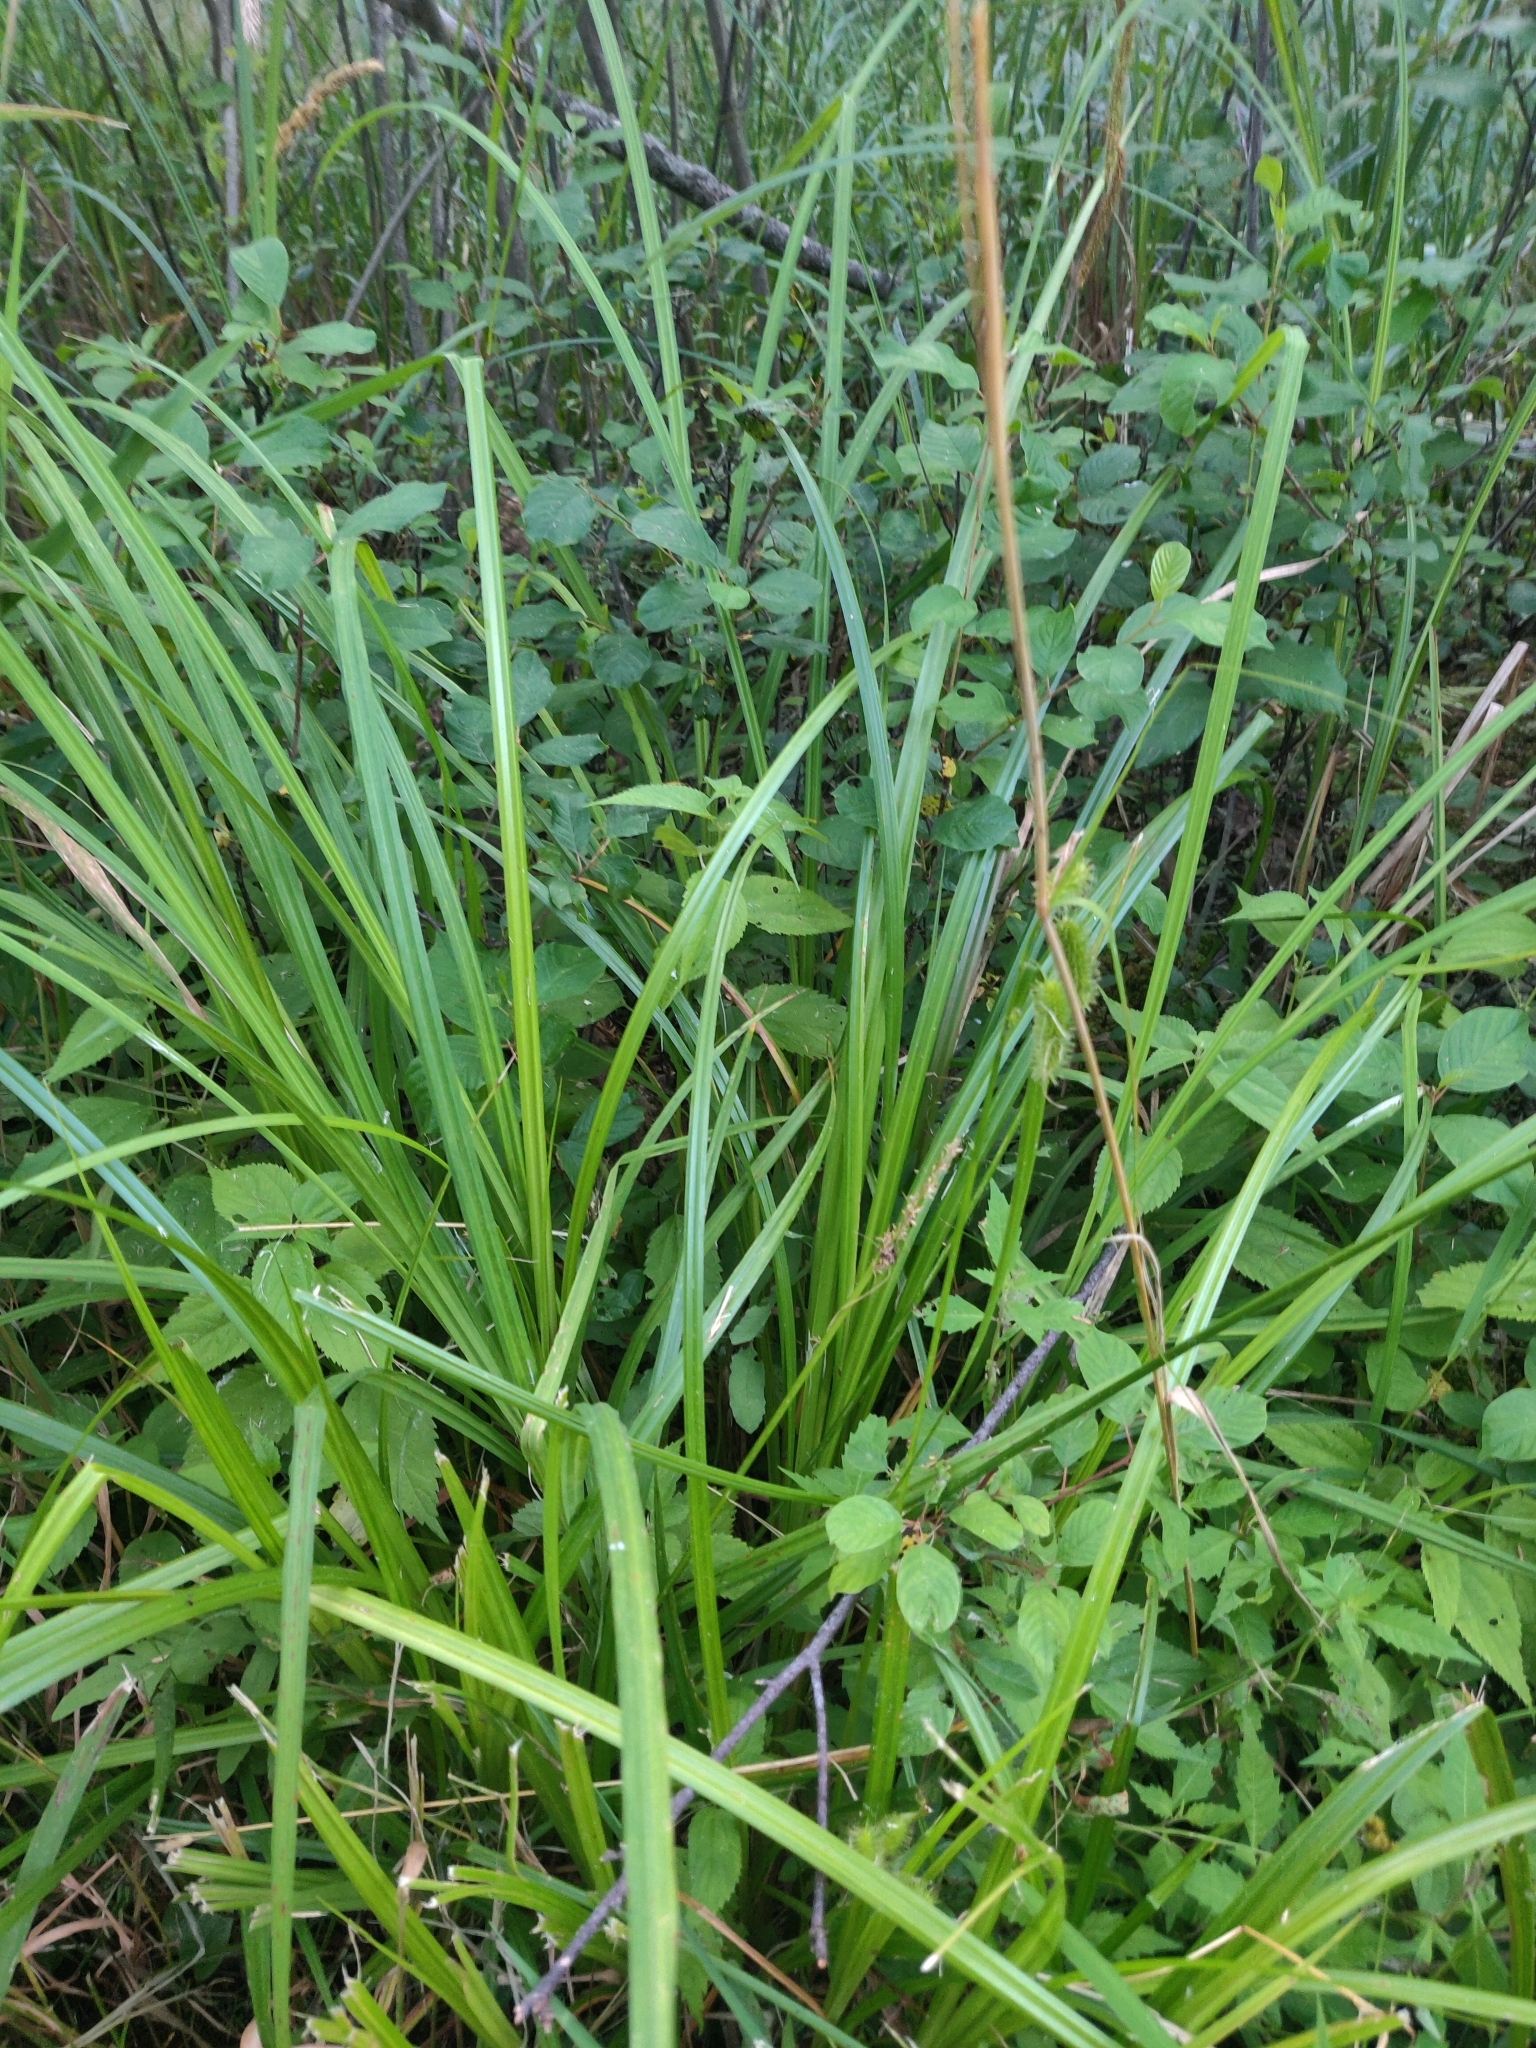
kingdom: Plantae
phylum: Tracheophyta
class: Liliopsida
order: Poales
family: Cyperaceae
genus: Carex
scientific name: Carex comosa
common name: Bristly sedge
